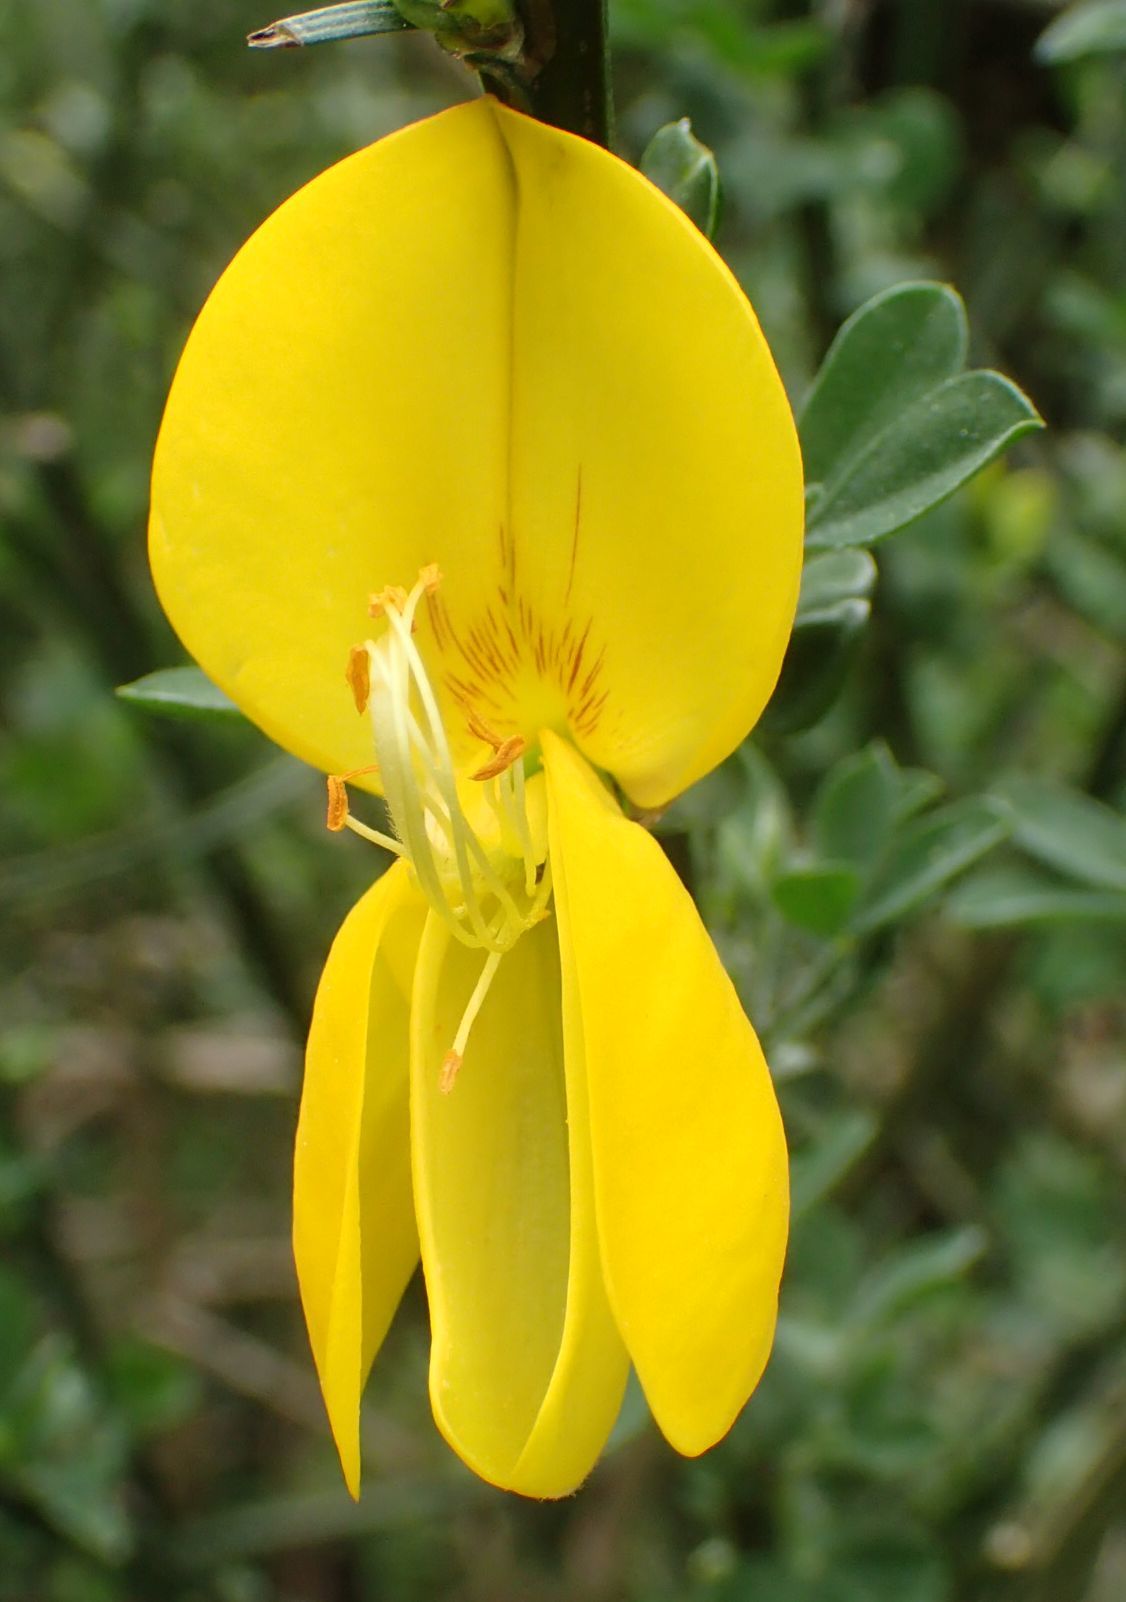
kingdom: Plantae
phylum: Tracheophyta
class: Magnoliopsida
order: Fabales
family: Fabaceae
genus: Cytisus
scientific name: Cytisus scoparius
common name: Scotch broom
